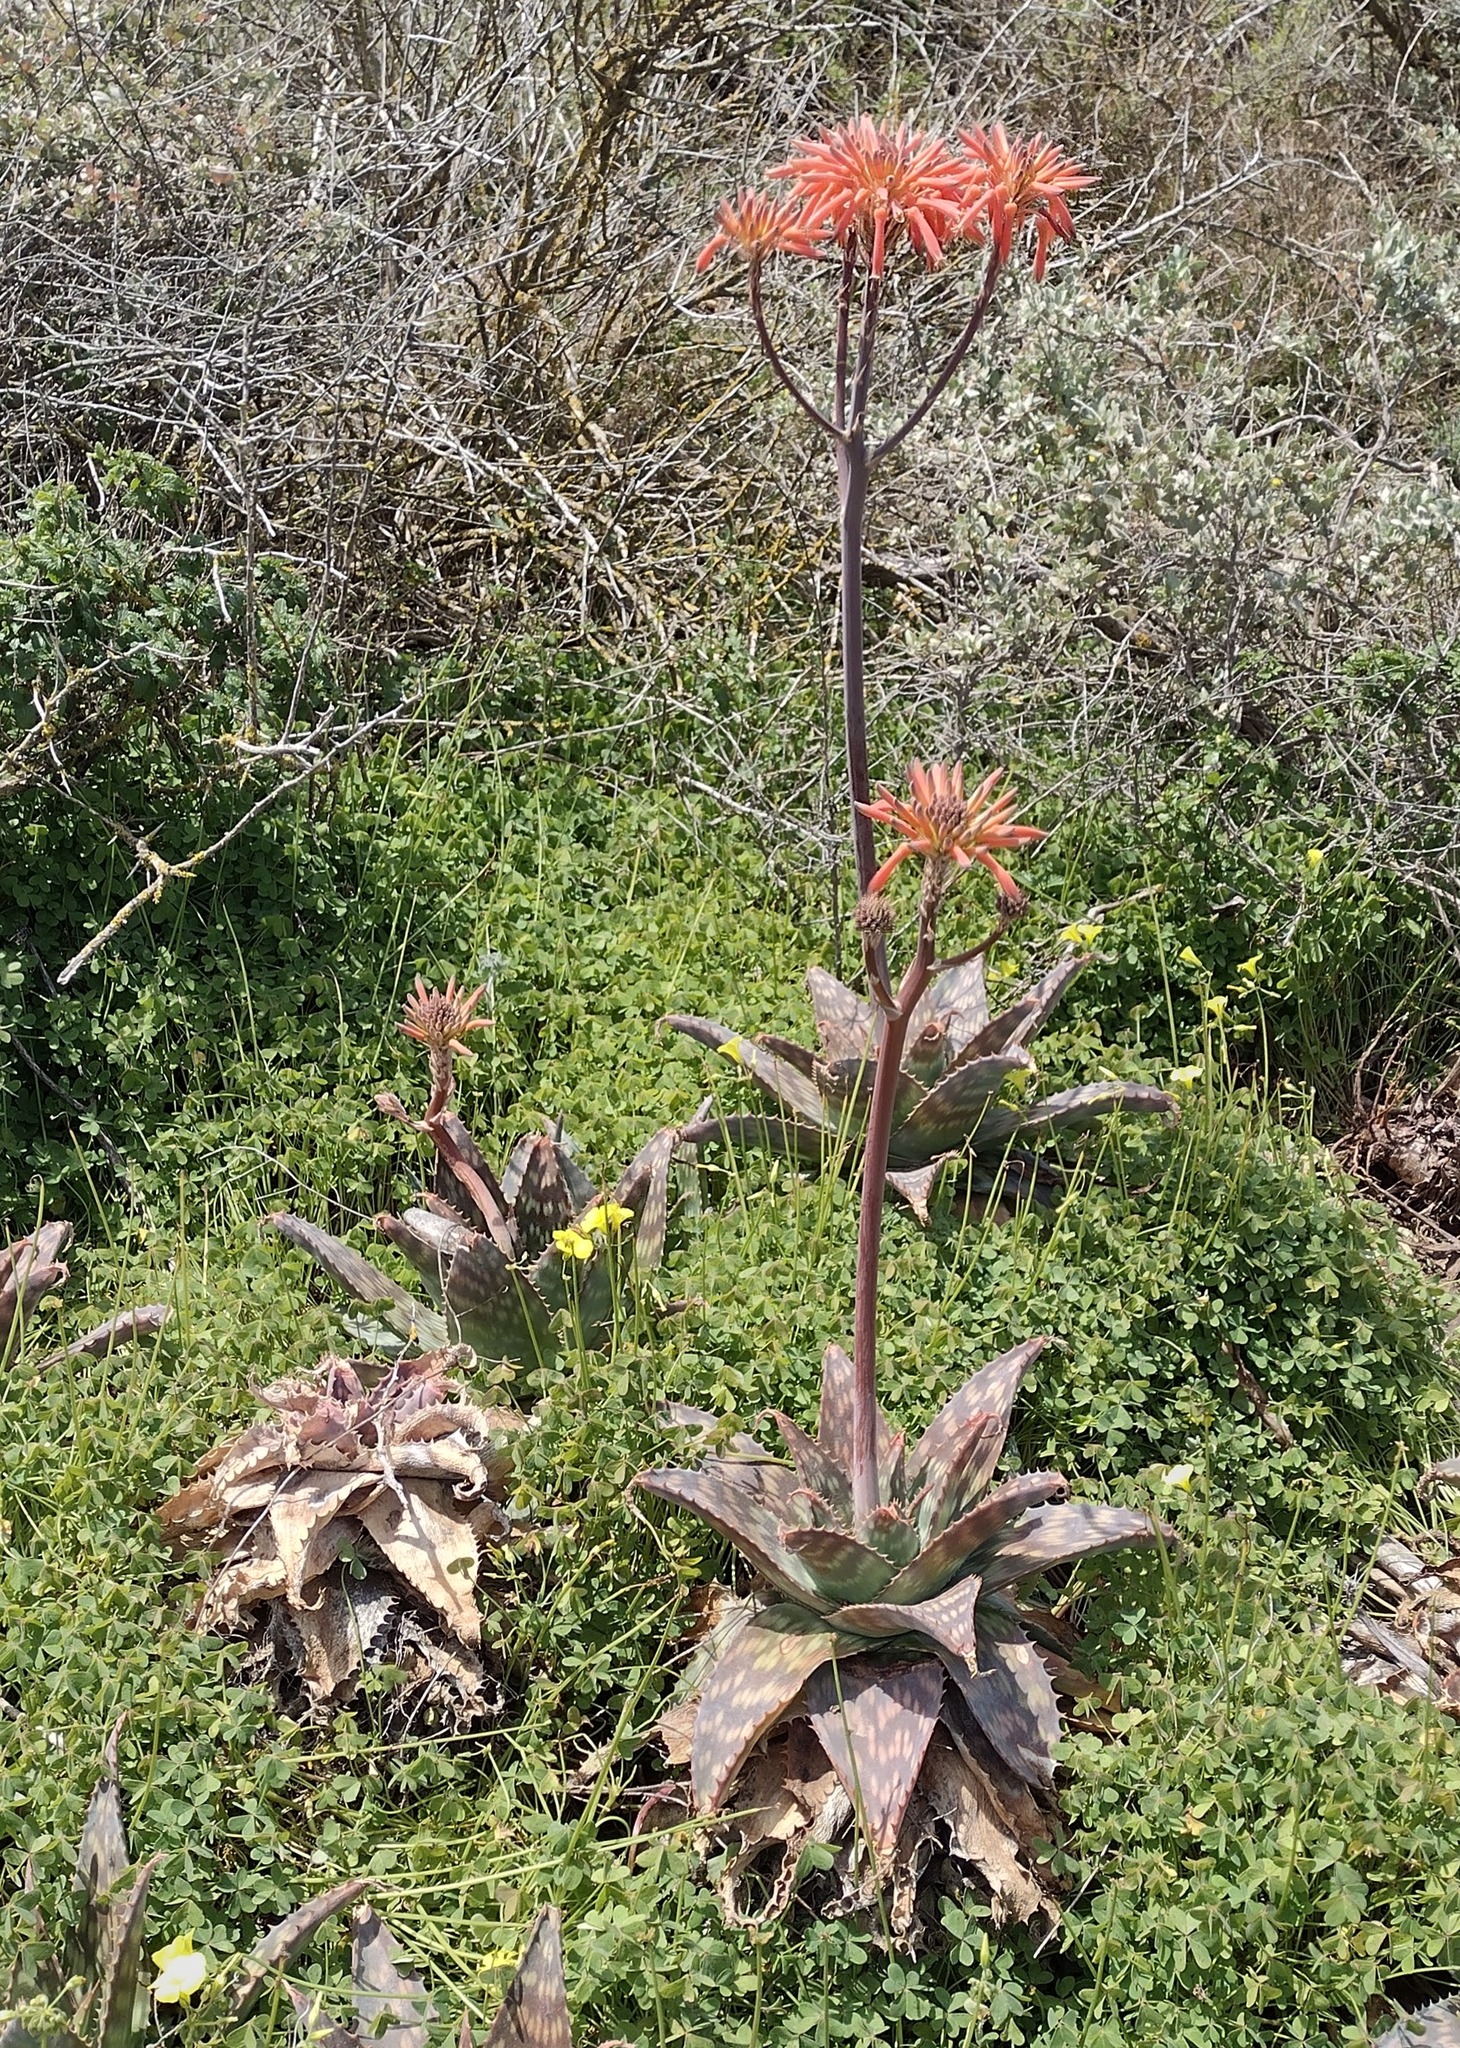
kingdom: Plantae
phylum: Tracheophyta
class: Liliopsida
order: Asparagales
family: Asphodelaceae
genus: Aloe
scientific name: Aloe maculata
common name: Broadleaf aloe
